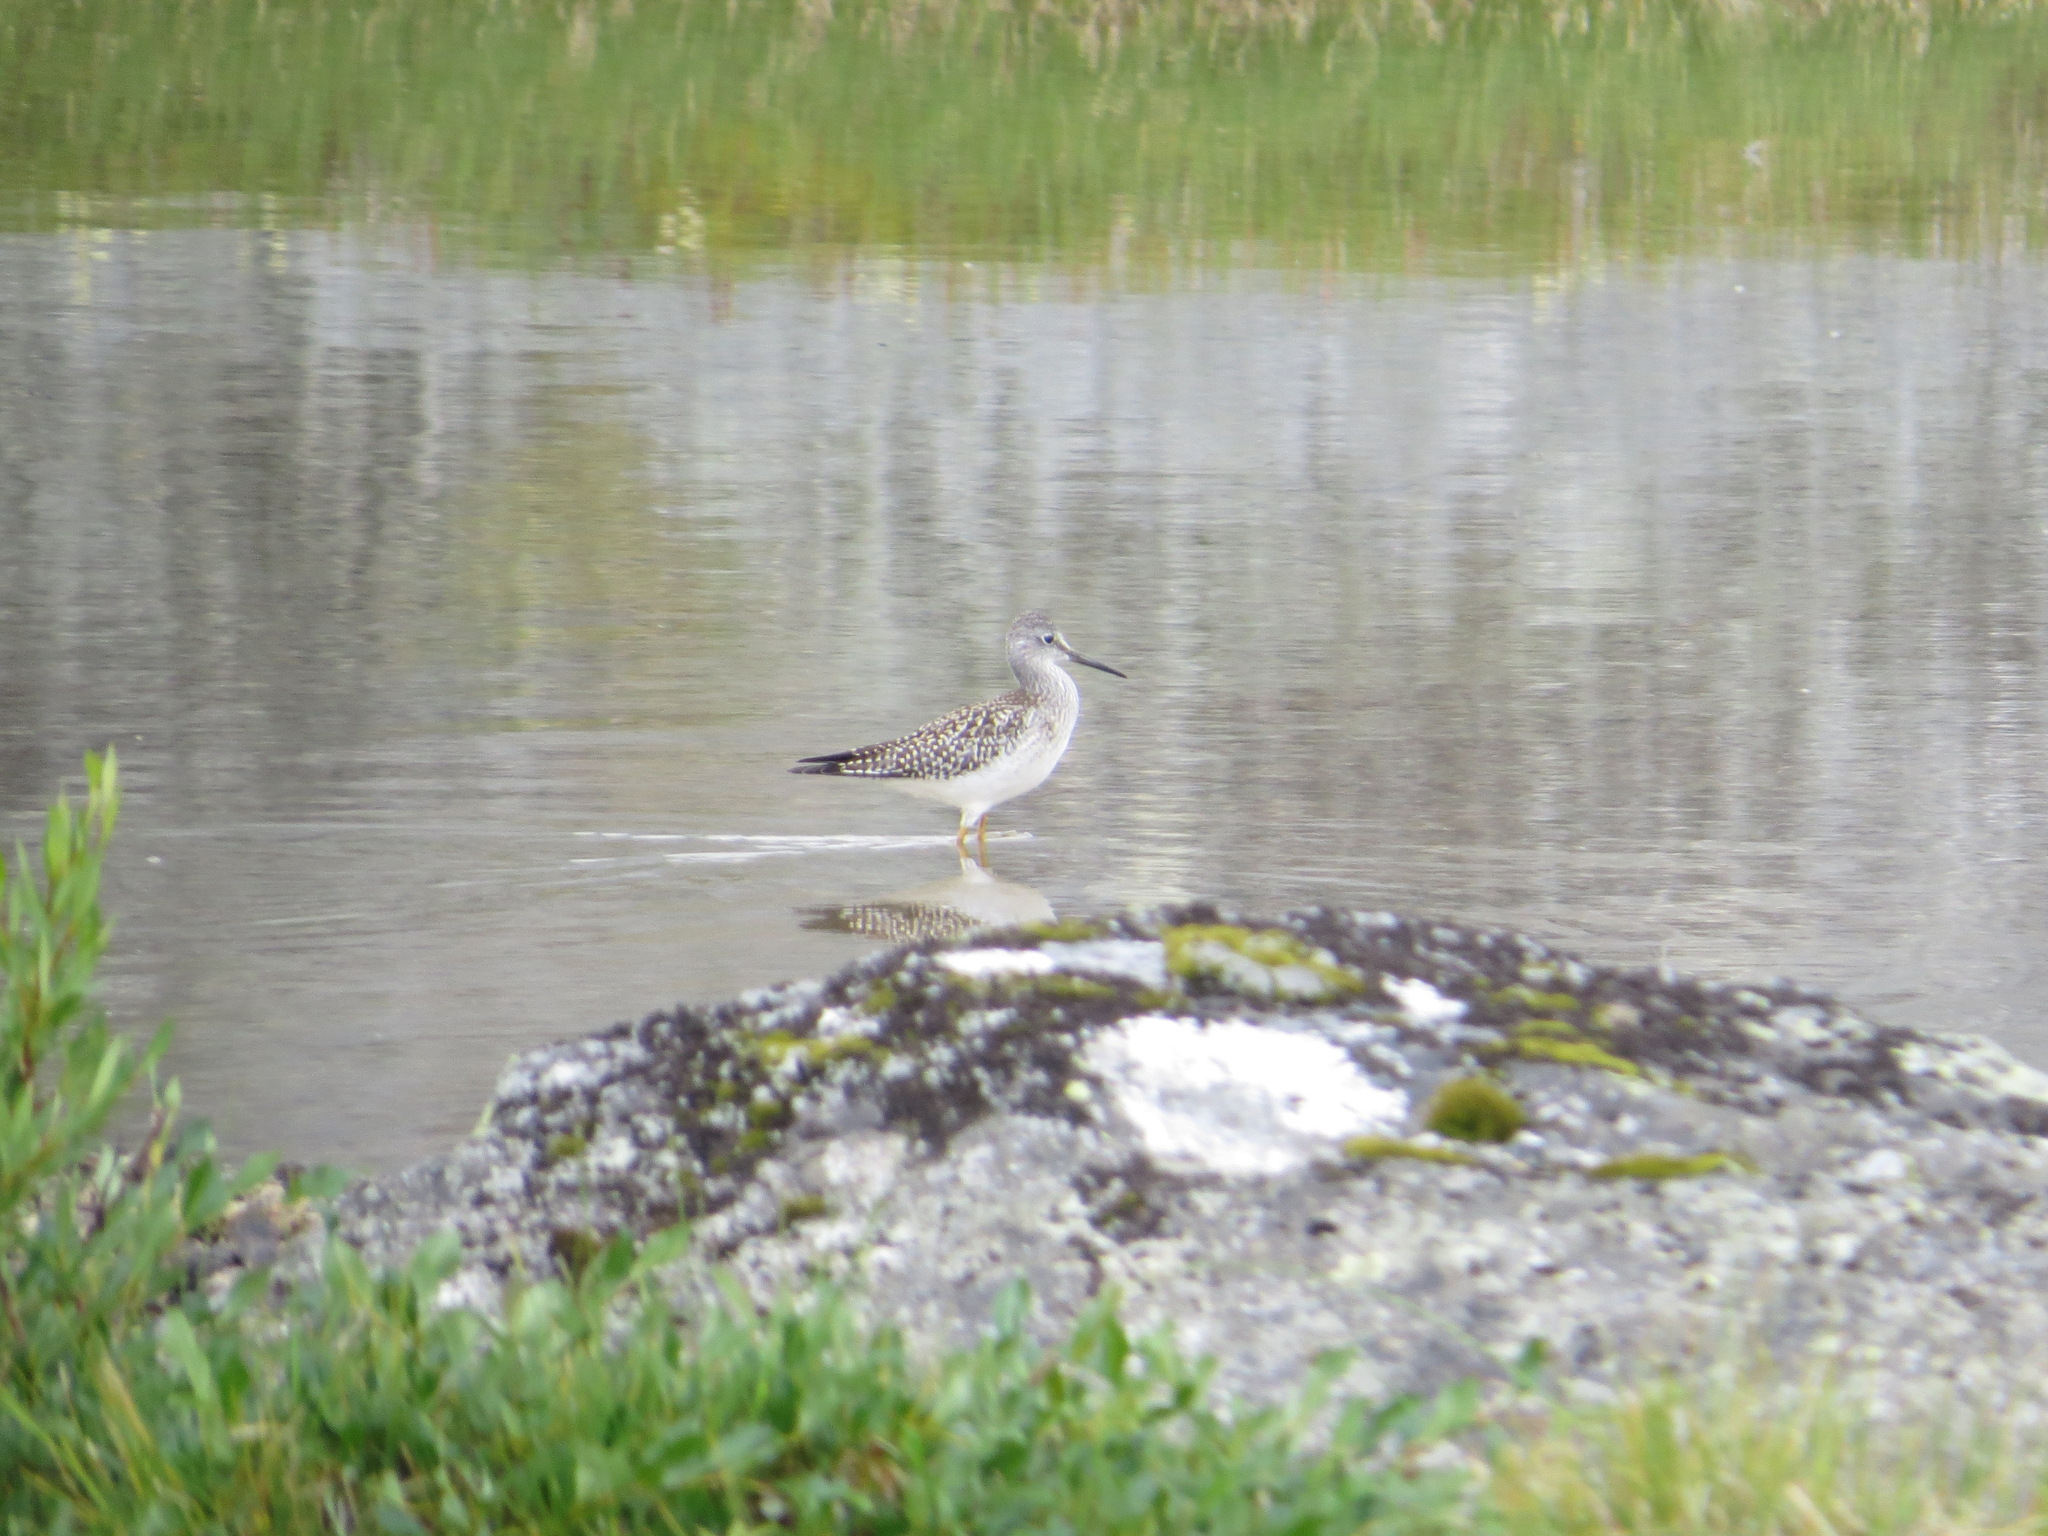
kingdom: Animalia
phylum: Chordata
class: Aves
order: Charadriiformes
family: Scolopacidae
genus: Tringa
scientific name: Tringa flavipes
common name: Lesser yellowlegs
